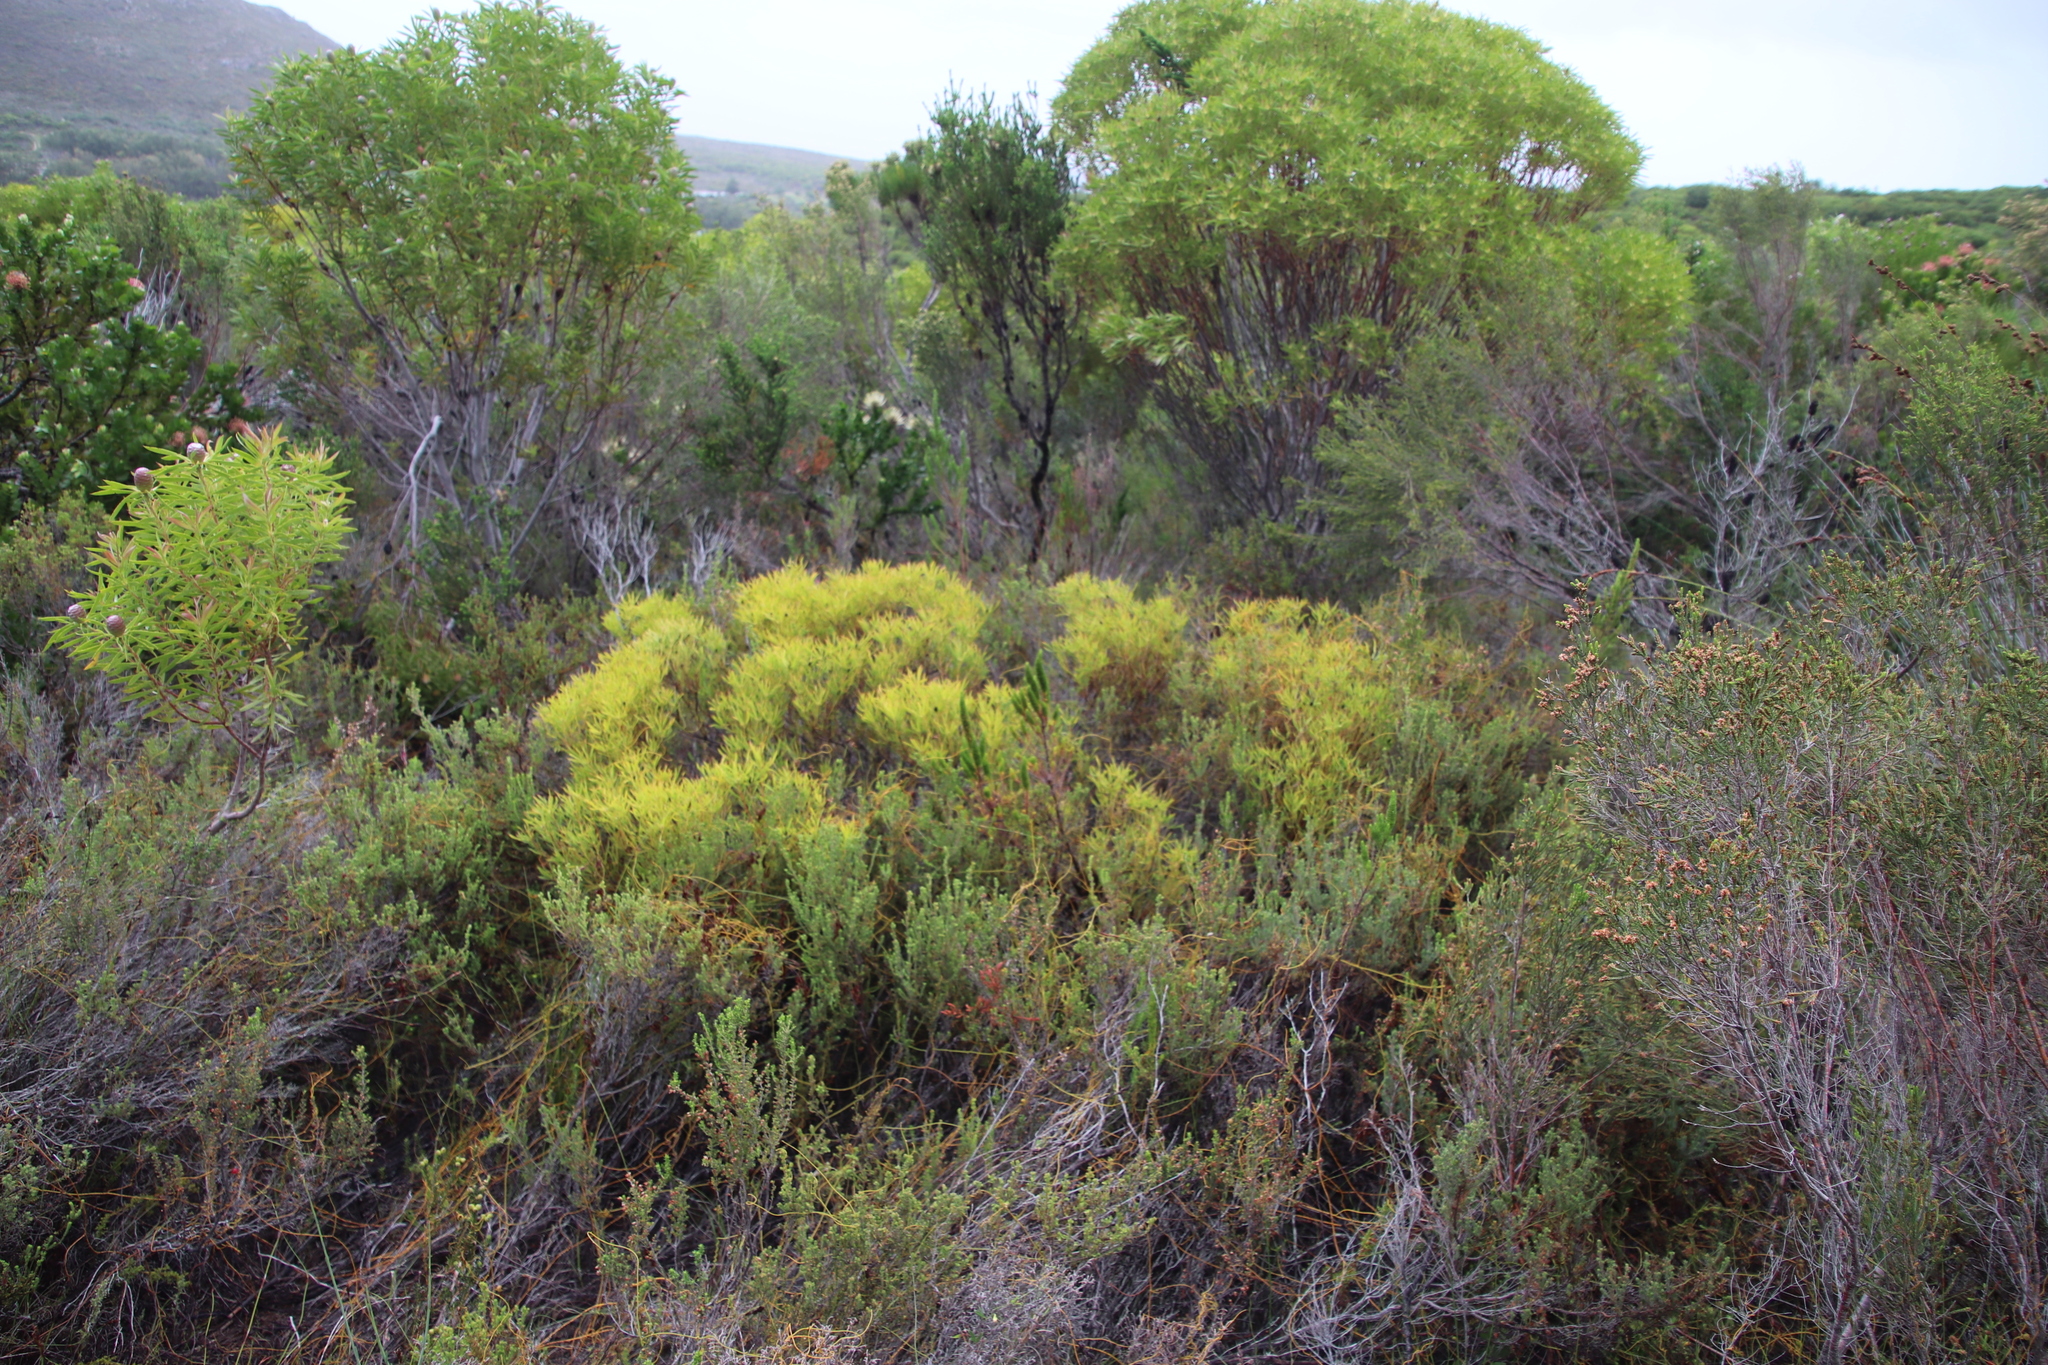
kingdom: Plantae
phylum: Tracheophyta
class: Magnoliopsida
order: Proteales
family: Proteaceae
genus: Leucadendron
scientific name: Leucadendron salignum
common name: Common sunshine conebush
